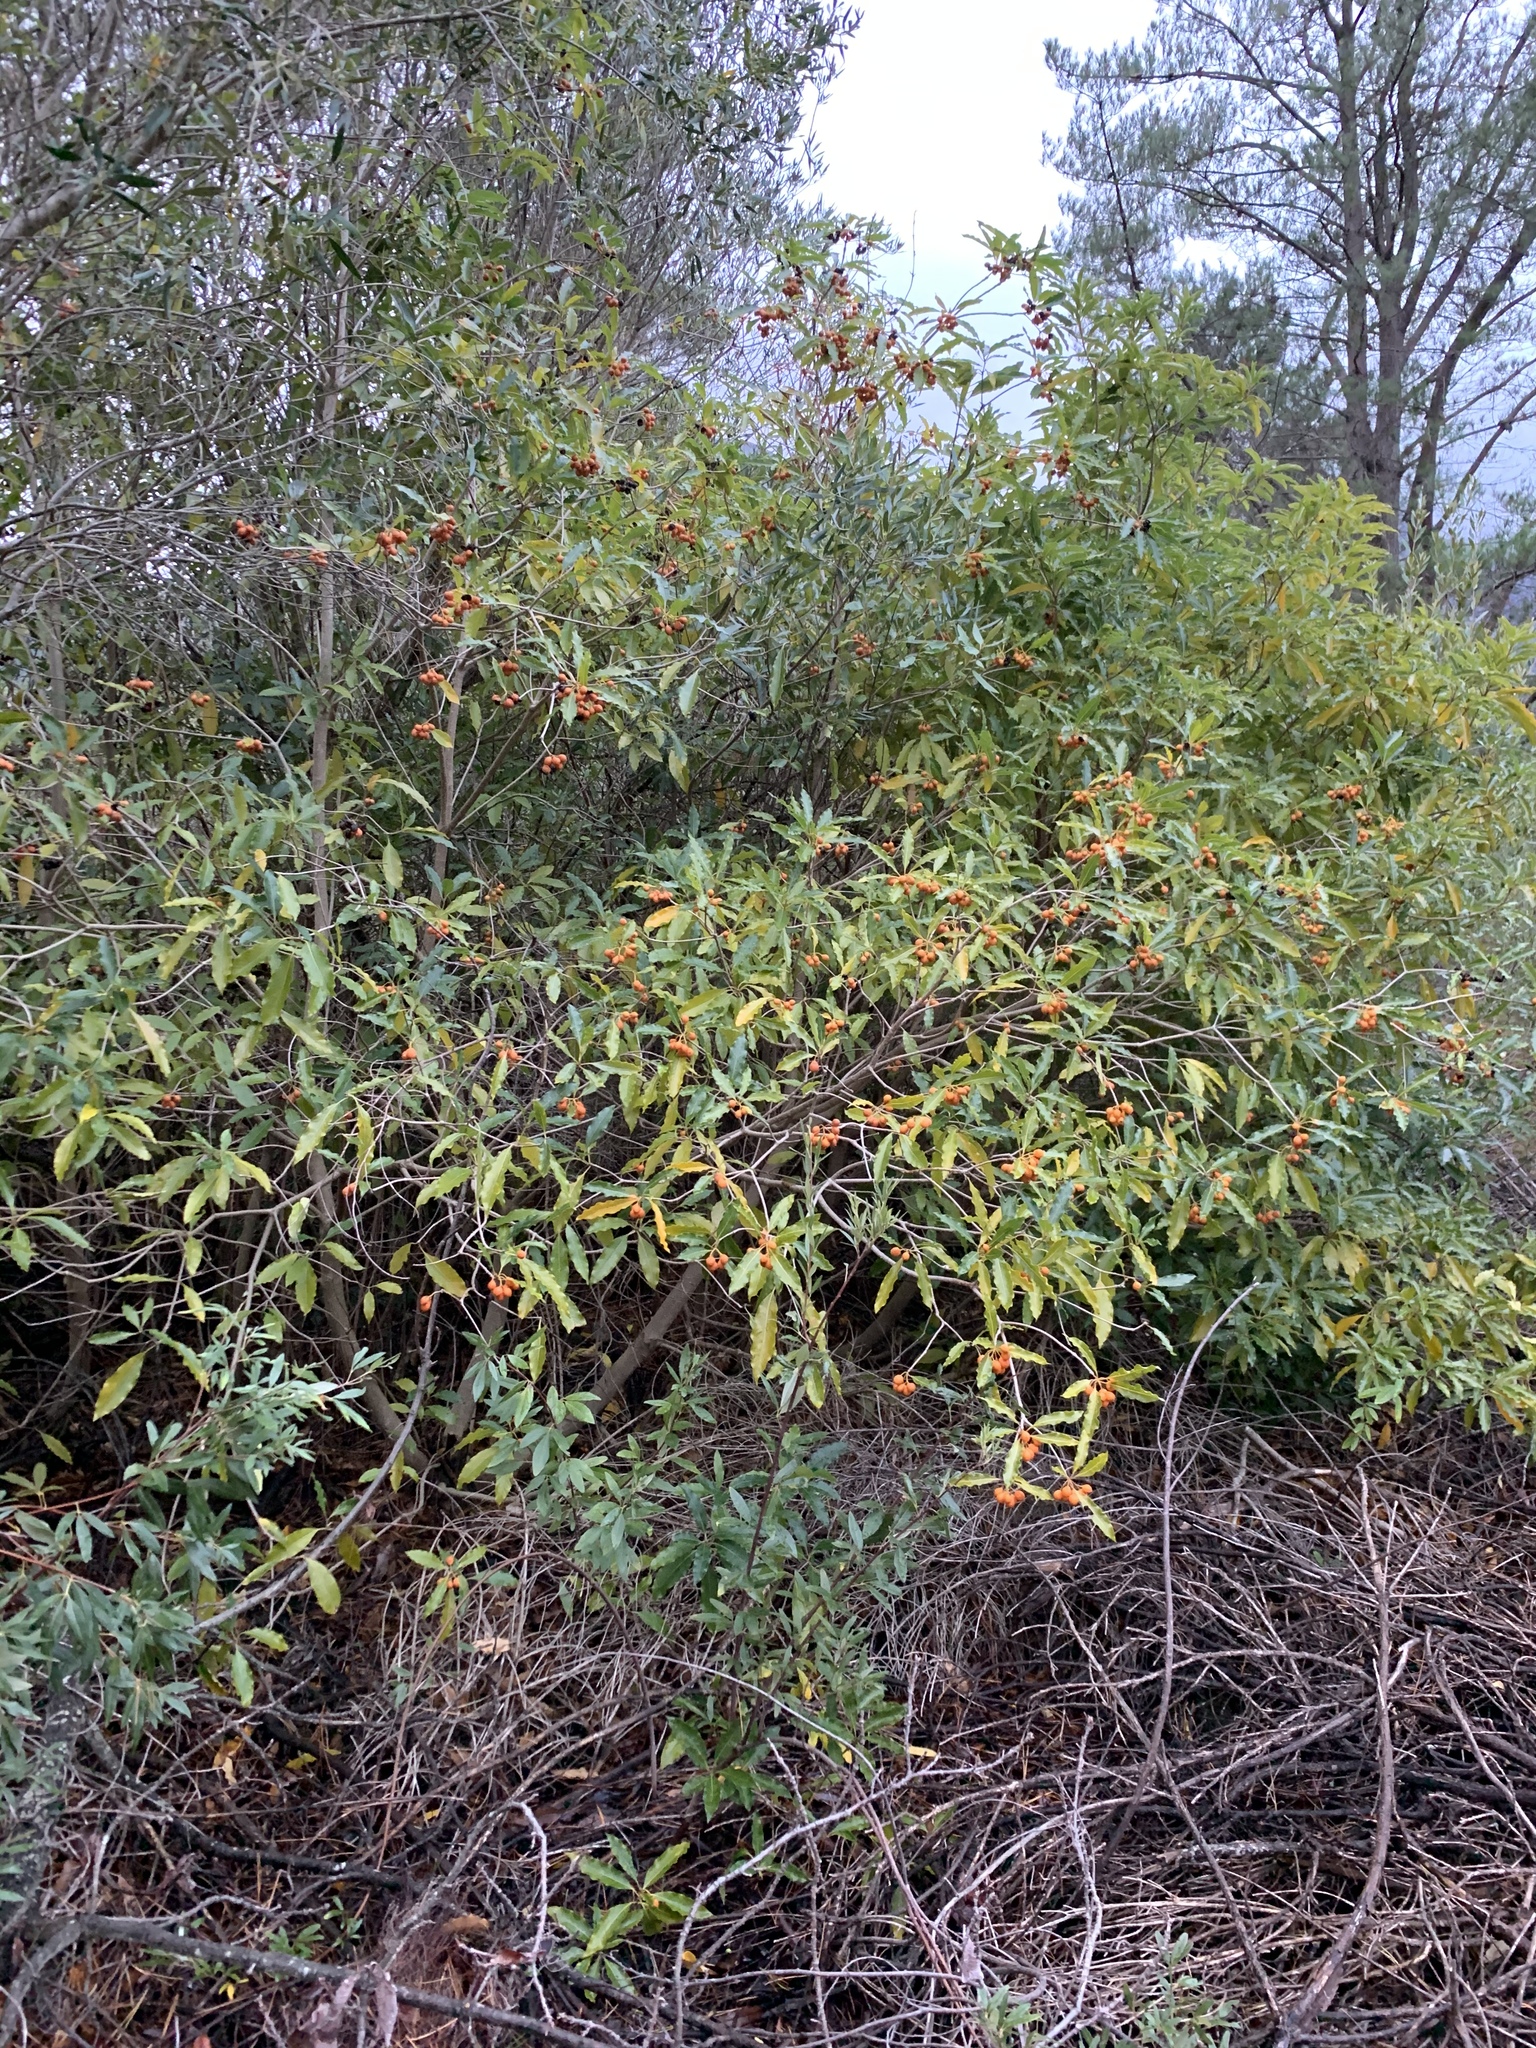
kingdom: Plantae
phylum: Tracheophyta
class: Magnoliopsida
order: Apiales
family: Pittosporaceae
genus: Pittosporum
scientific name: Pittosporum undulatum
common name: Australian cheesewood
